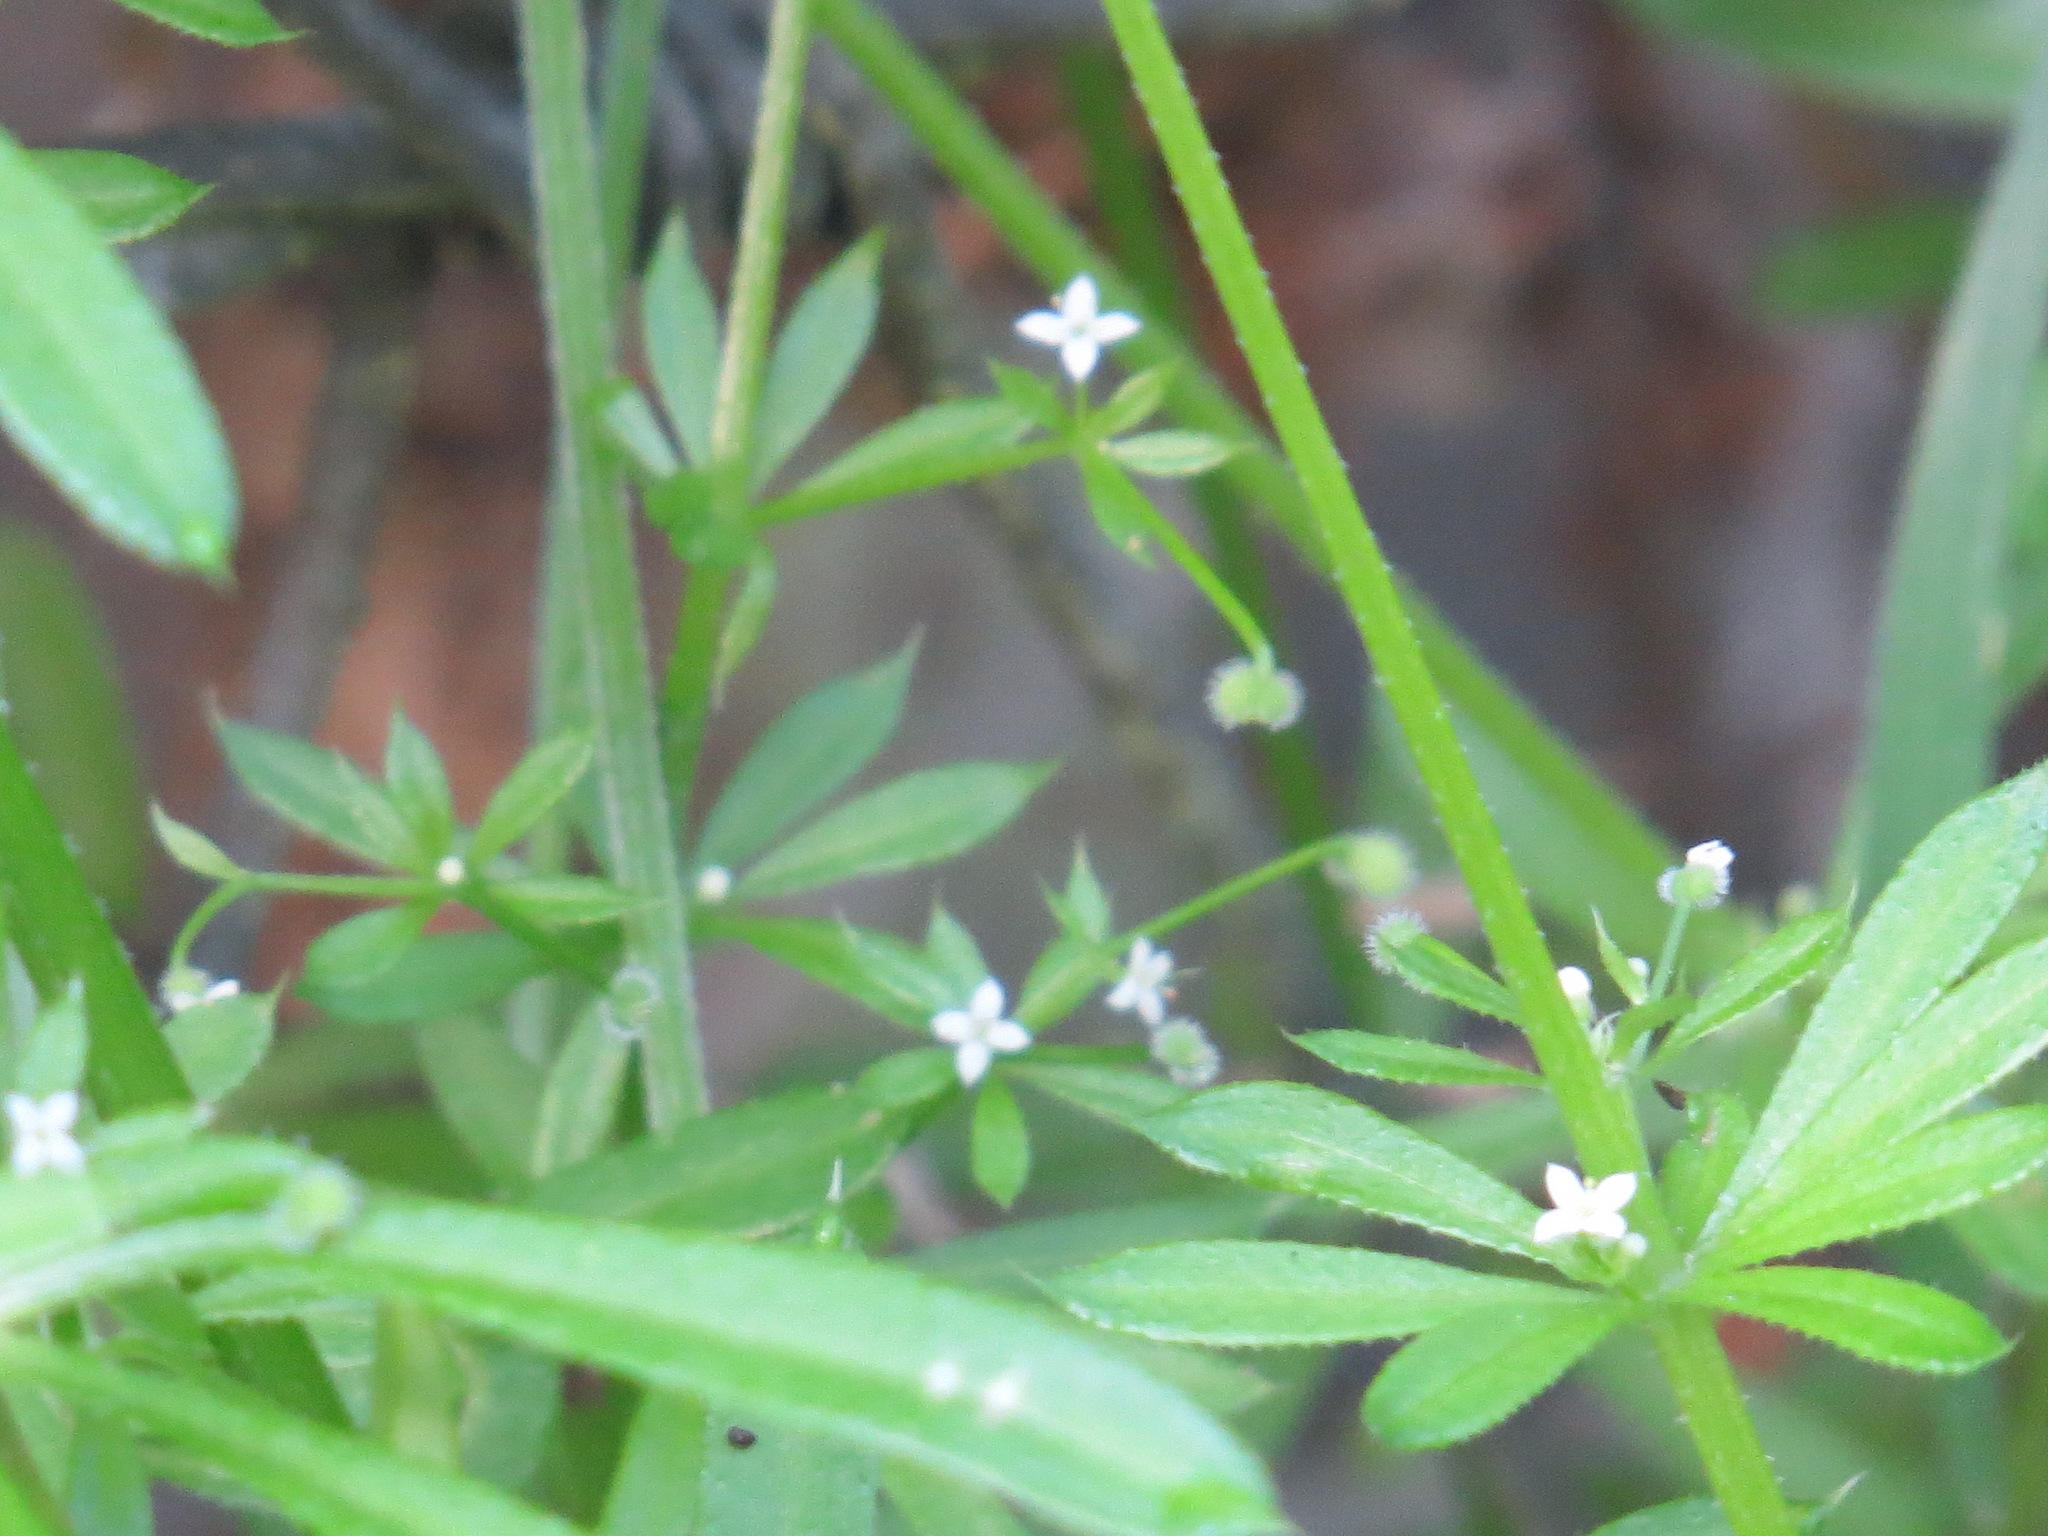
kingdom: Plantae
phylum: Tracheophyta
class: Magnoliopsida
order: Gentianales
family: Rubiaceae
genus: Galium
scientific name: Galium aparine
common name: Cleavers
